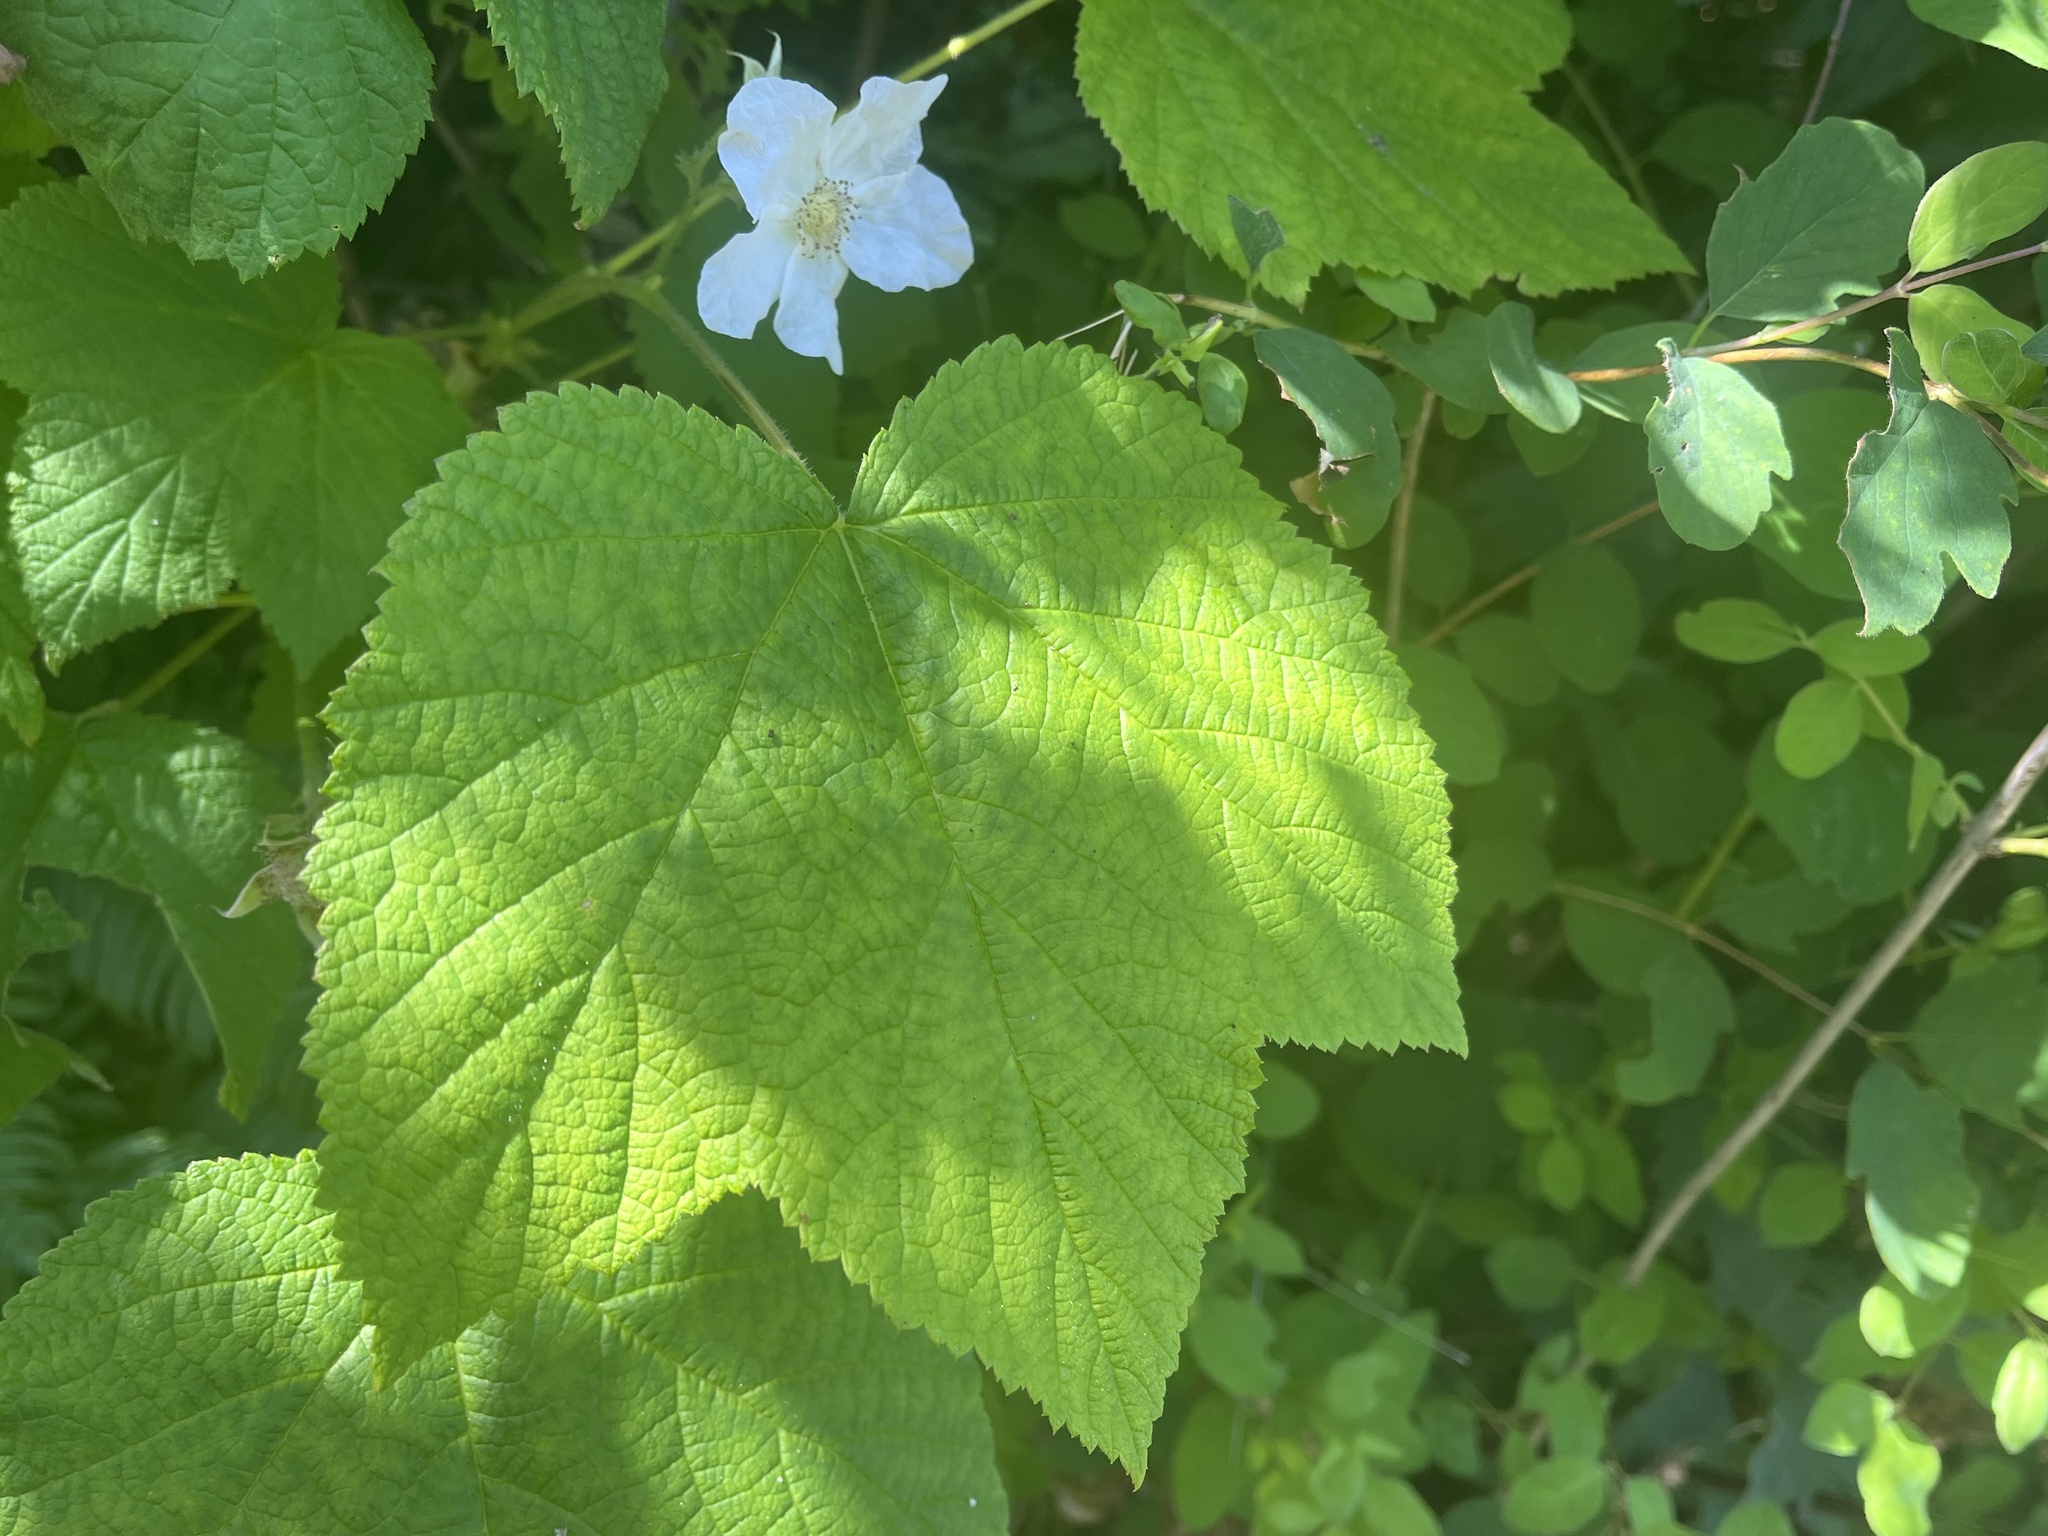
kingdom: Plantae
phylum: Tracheophyta
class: Magnoliopsida
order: Rosales
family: Rosaceae
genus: Rubus
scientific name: Rubus parviflorus
